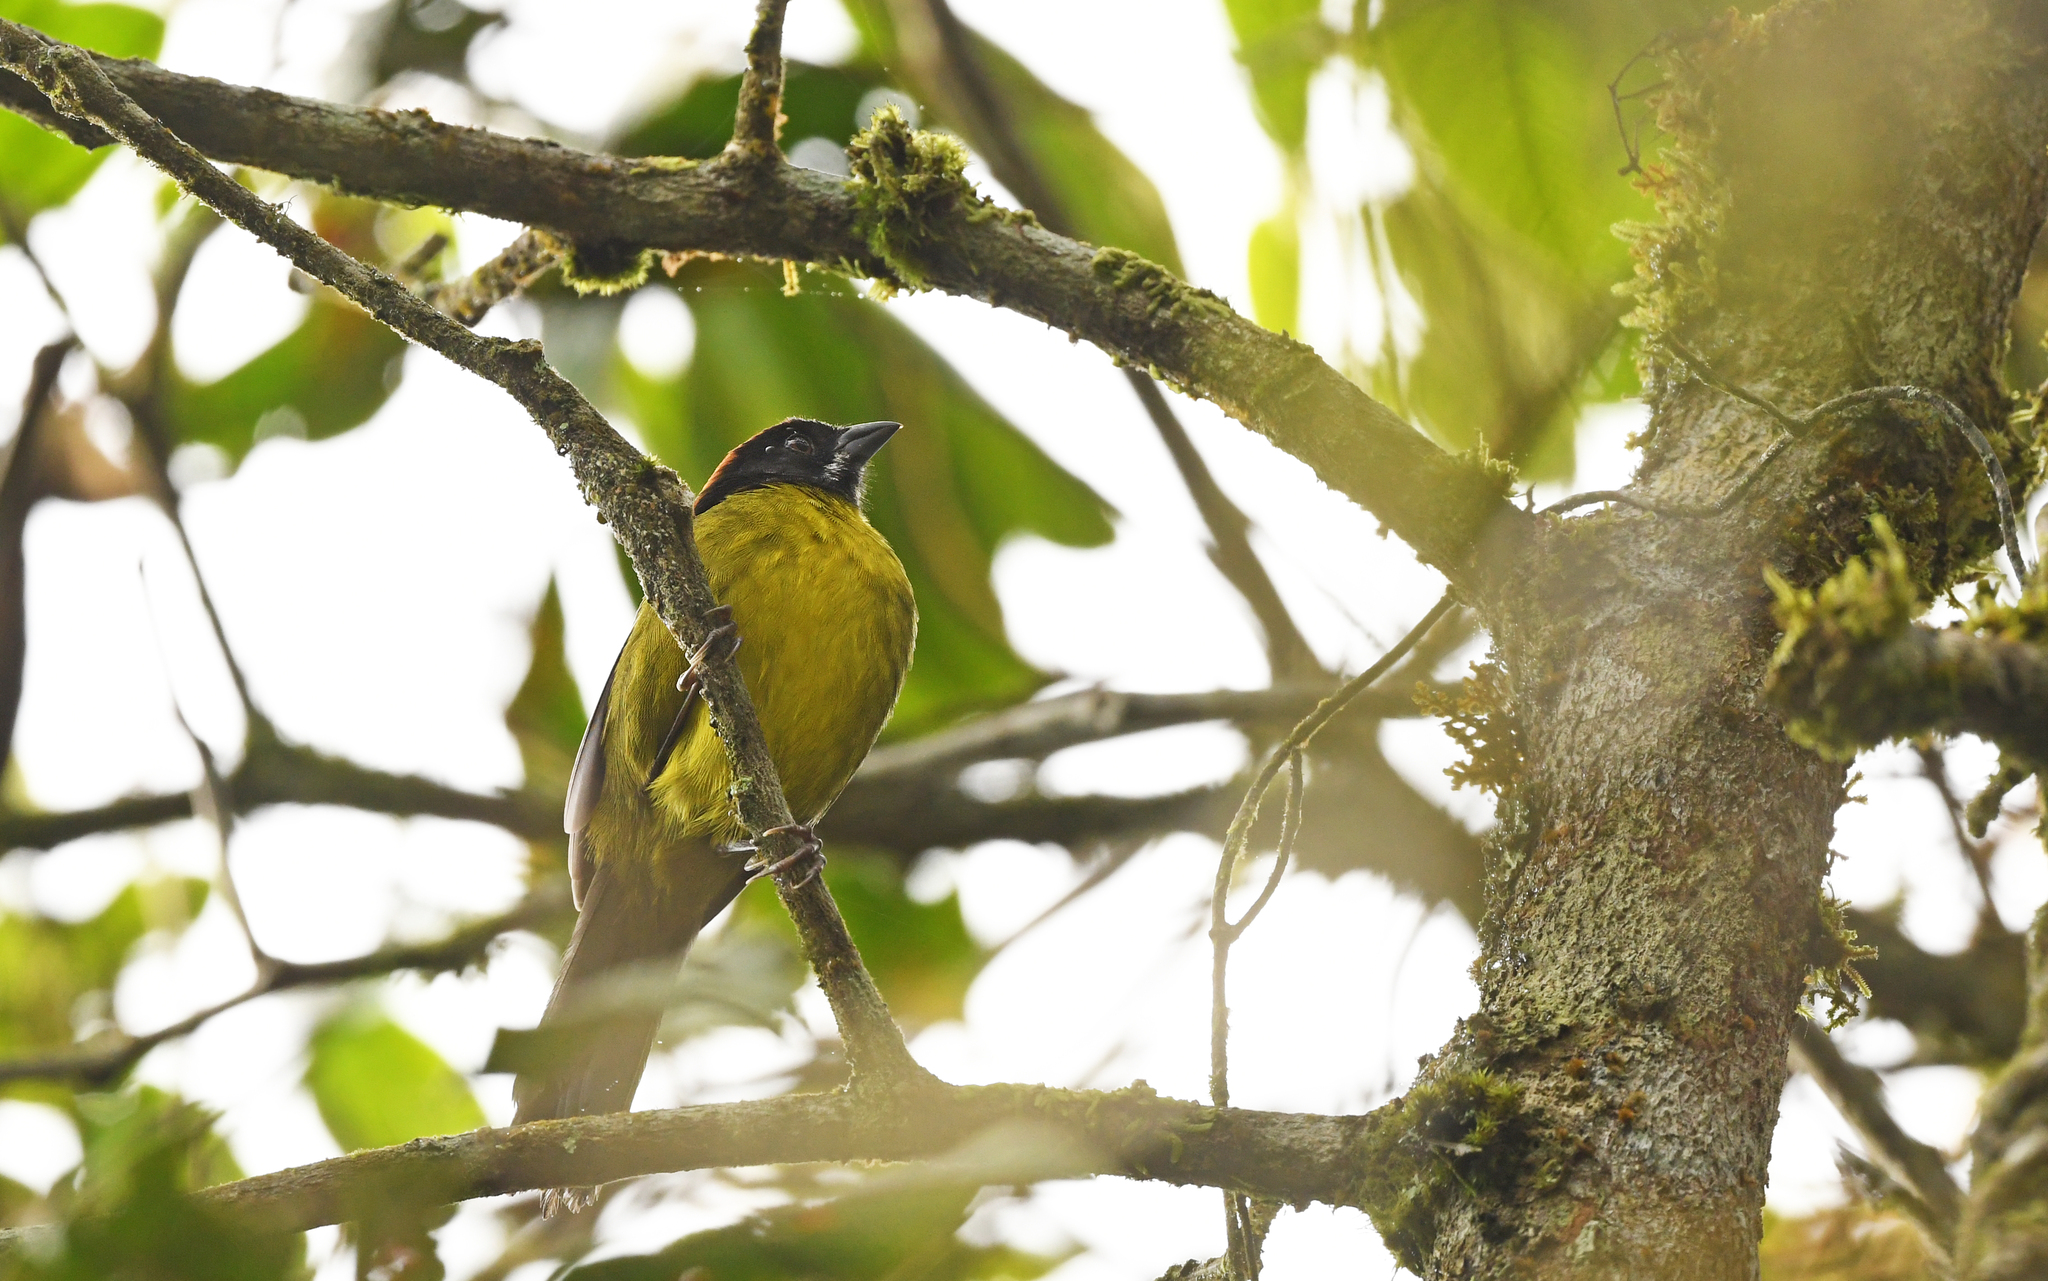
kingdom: Animalia
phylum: Chordata
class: Aves
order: Passeriformes
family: Passerellidae
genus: Atlapetes
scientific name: Atlapetes albofrenatus
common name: Moustached brushfinch
